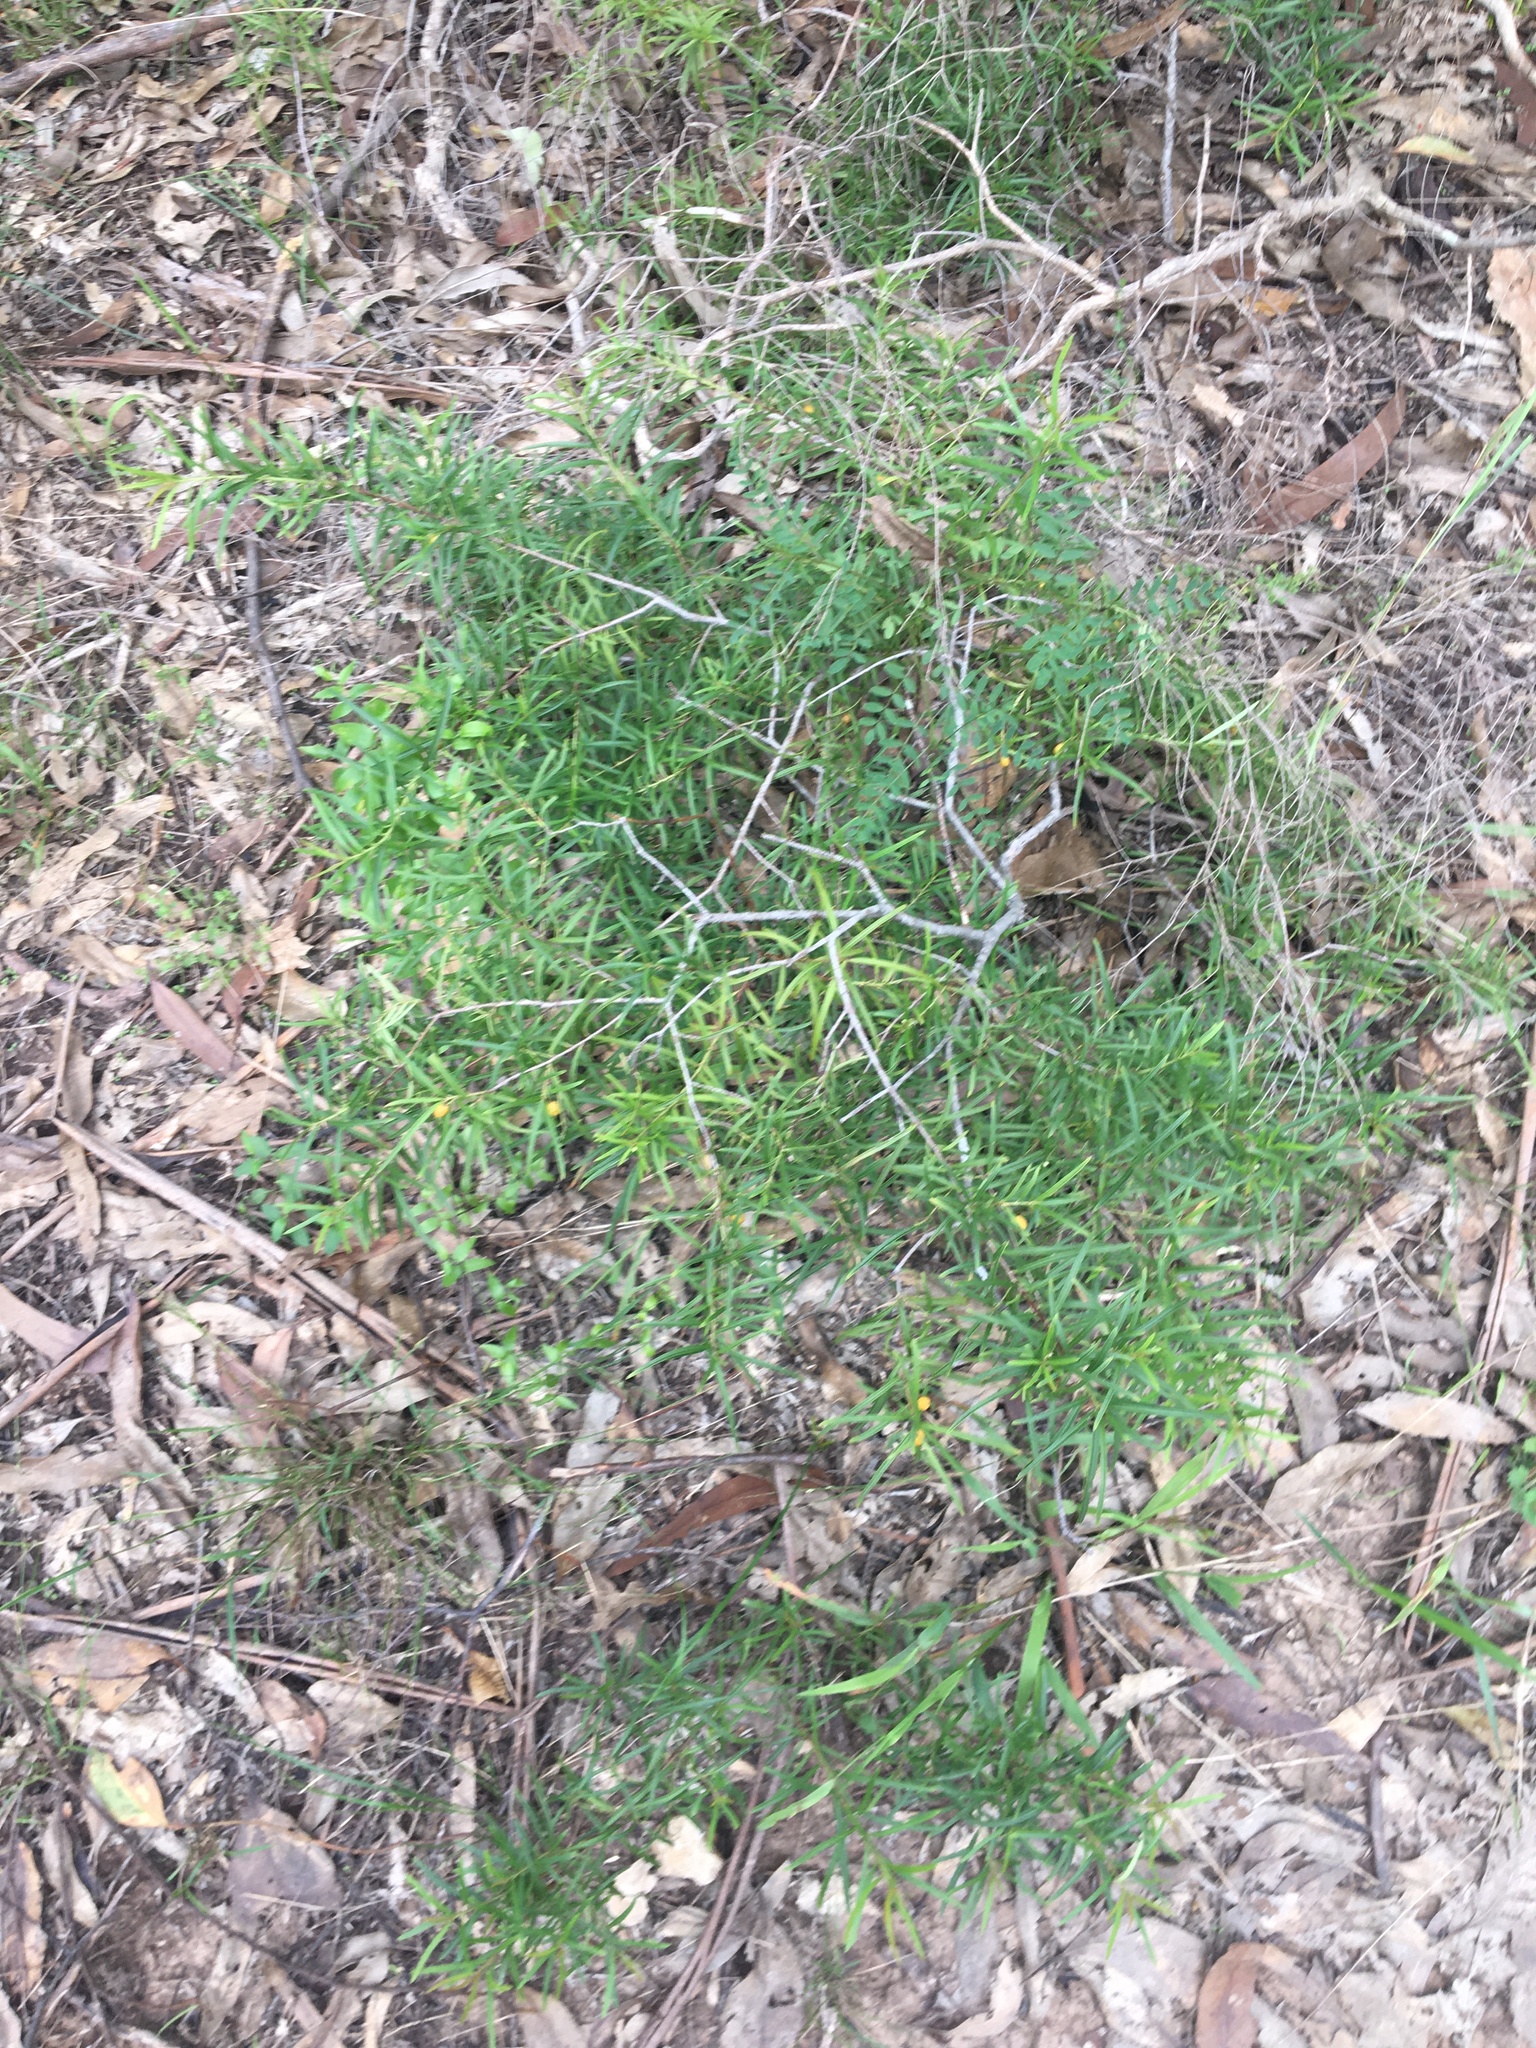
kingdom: Plantae
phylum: Tracheophyta
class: Magnoliopsida
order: Celastrales
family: Celastraceae
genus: Denhamia
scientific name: Denhamia silvestris
